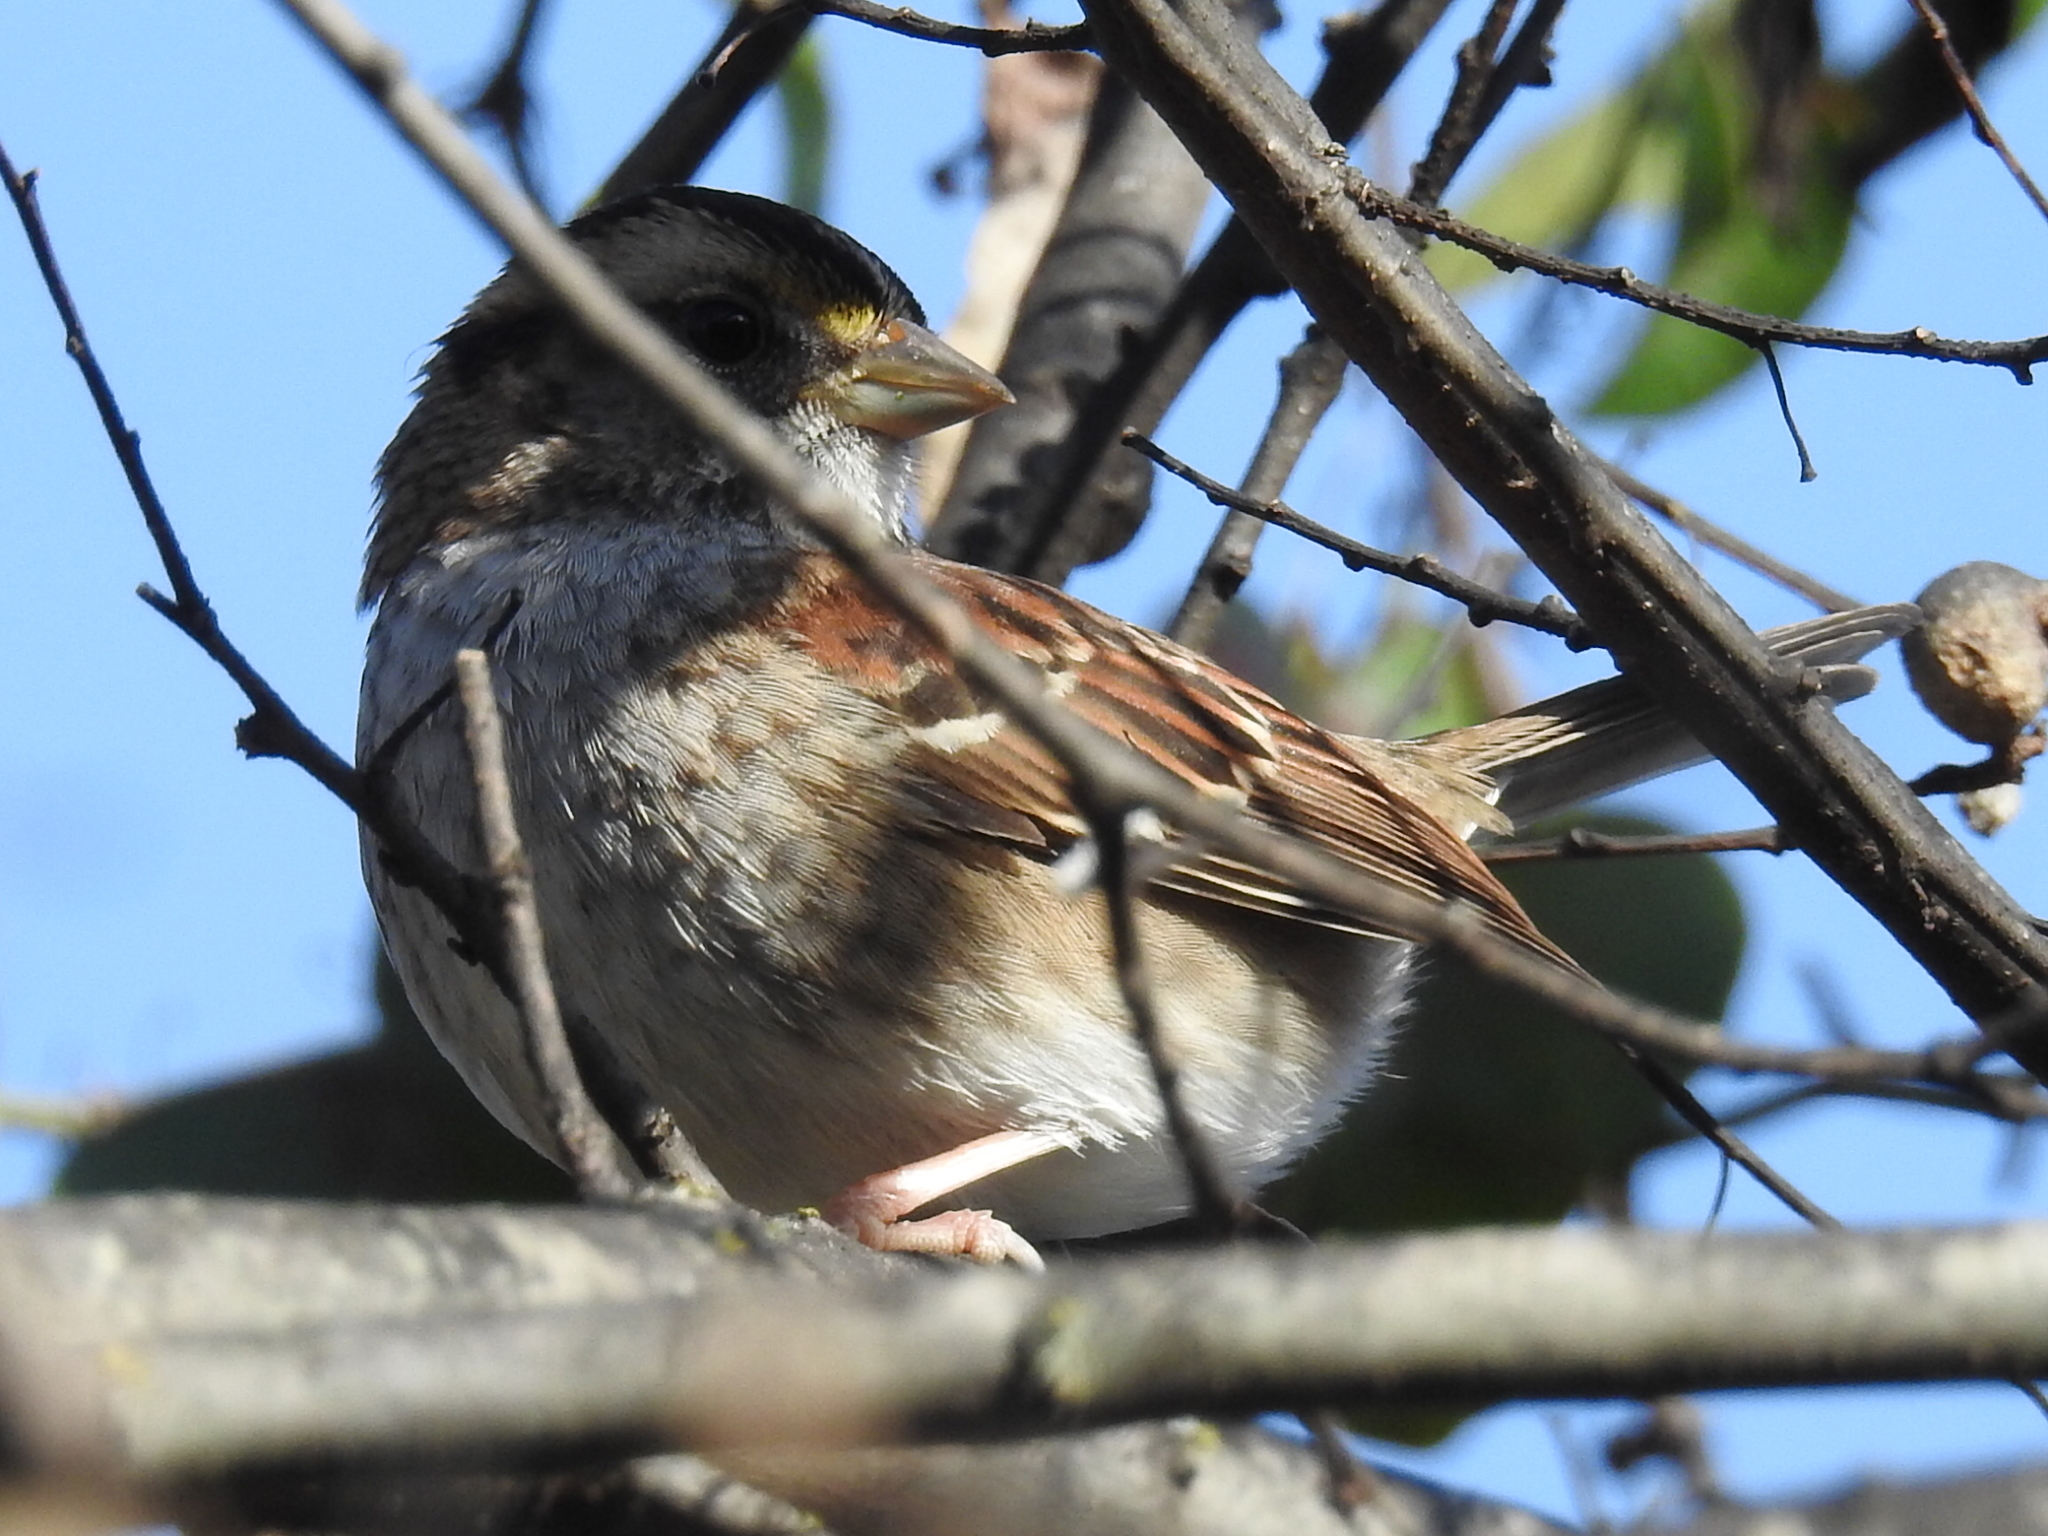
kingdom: Animalia
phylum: Chordata
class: Aves
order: Passeriformes
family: Passerellidae
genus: Zonotrichia
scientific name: Zonotrichia albicollis
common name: White-throated sparrow
